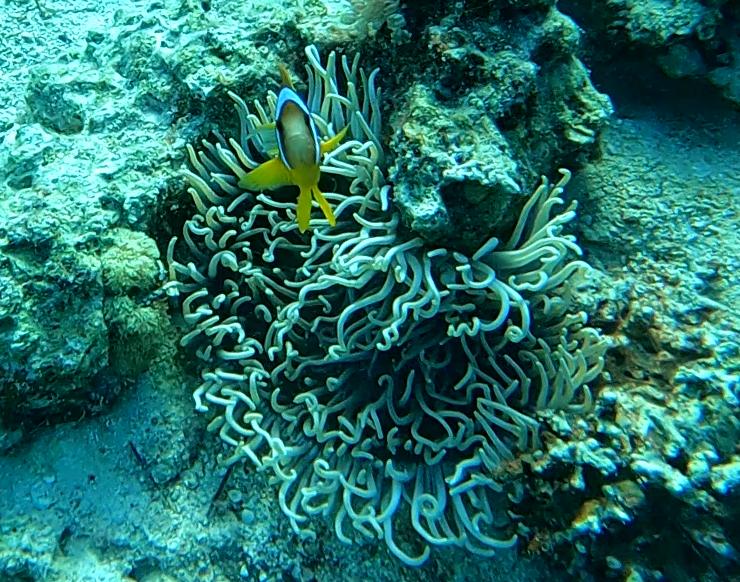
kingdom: Animalia
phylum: Cnidaria
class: Anthozoa
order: Actiniaria
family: Stichodactylidae
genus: Radianthus
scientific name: Radianthus crispa
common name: Leather anemone
